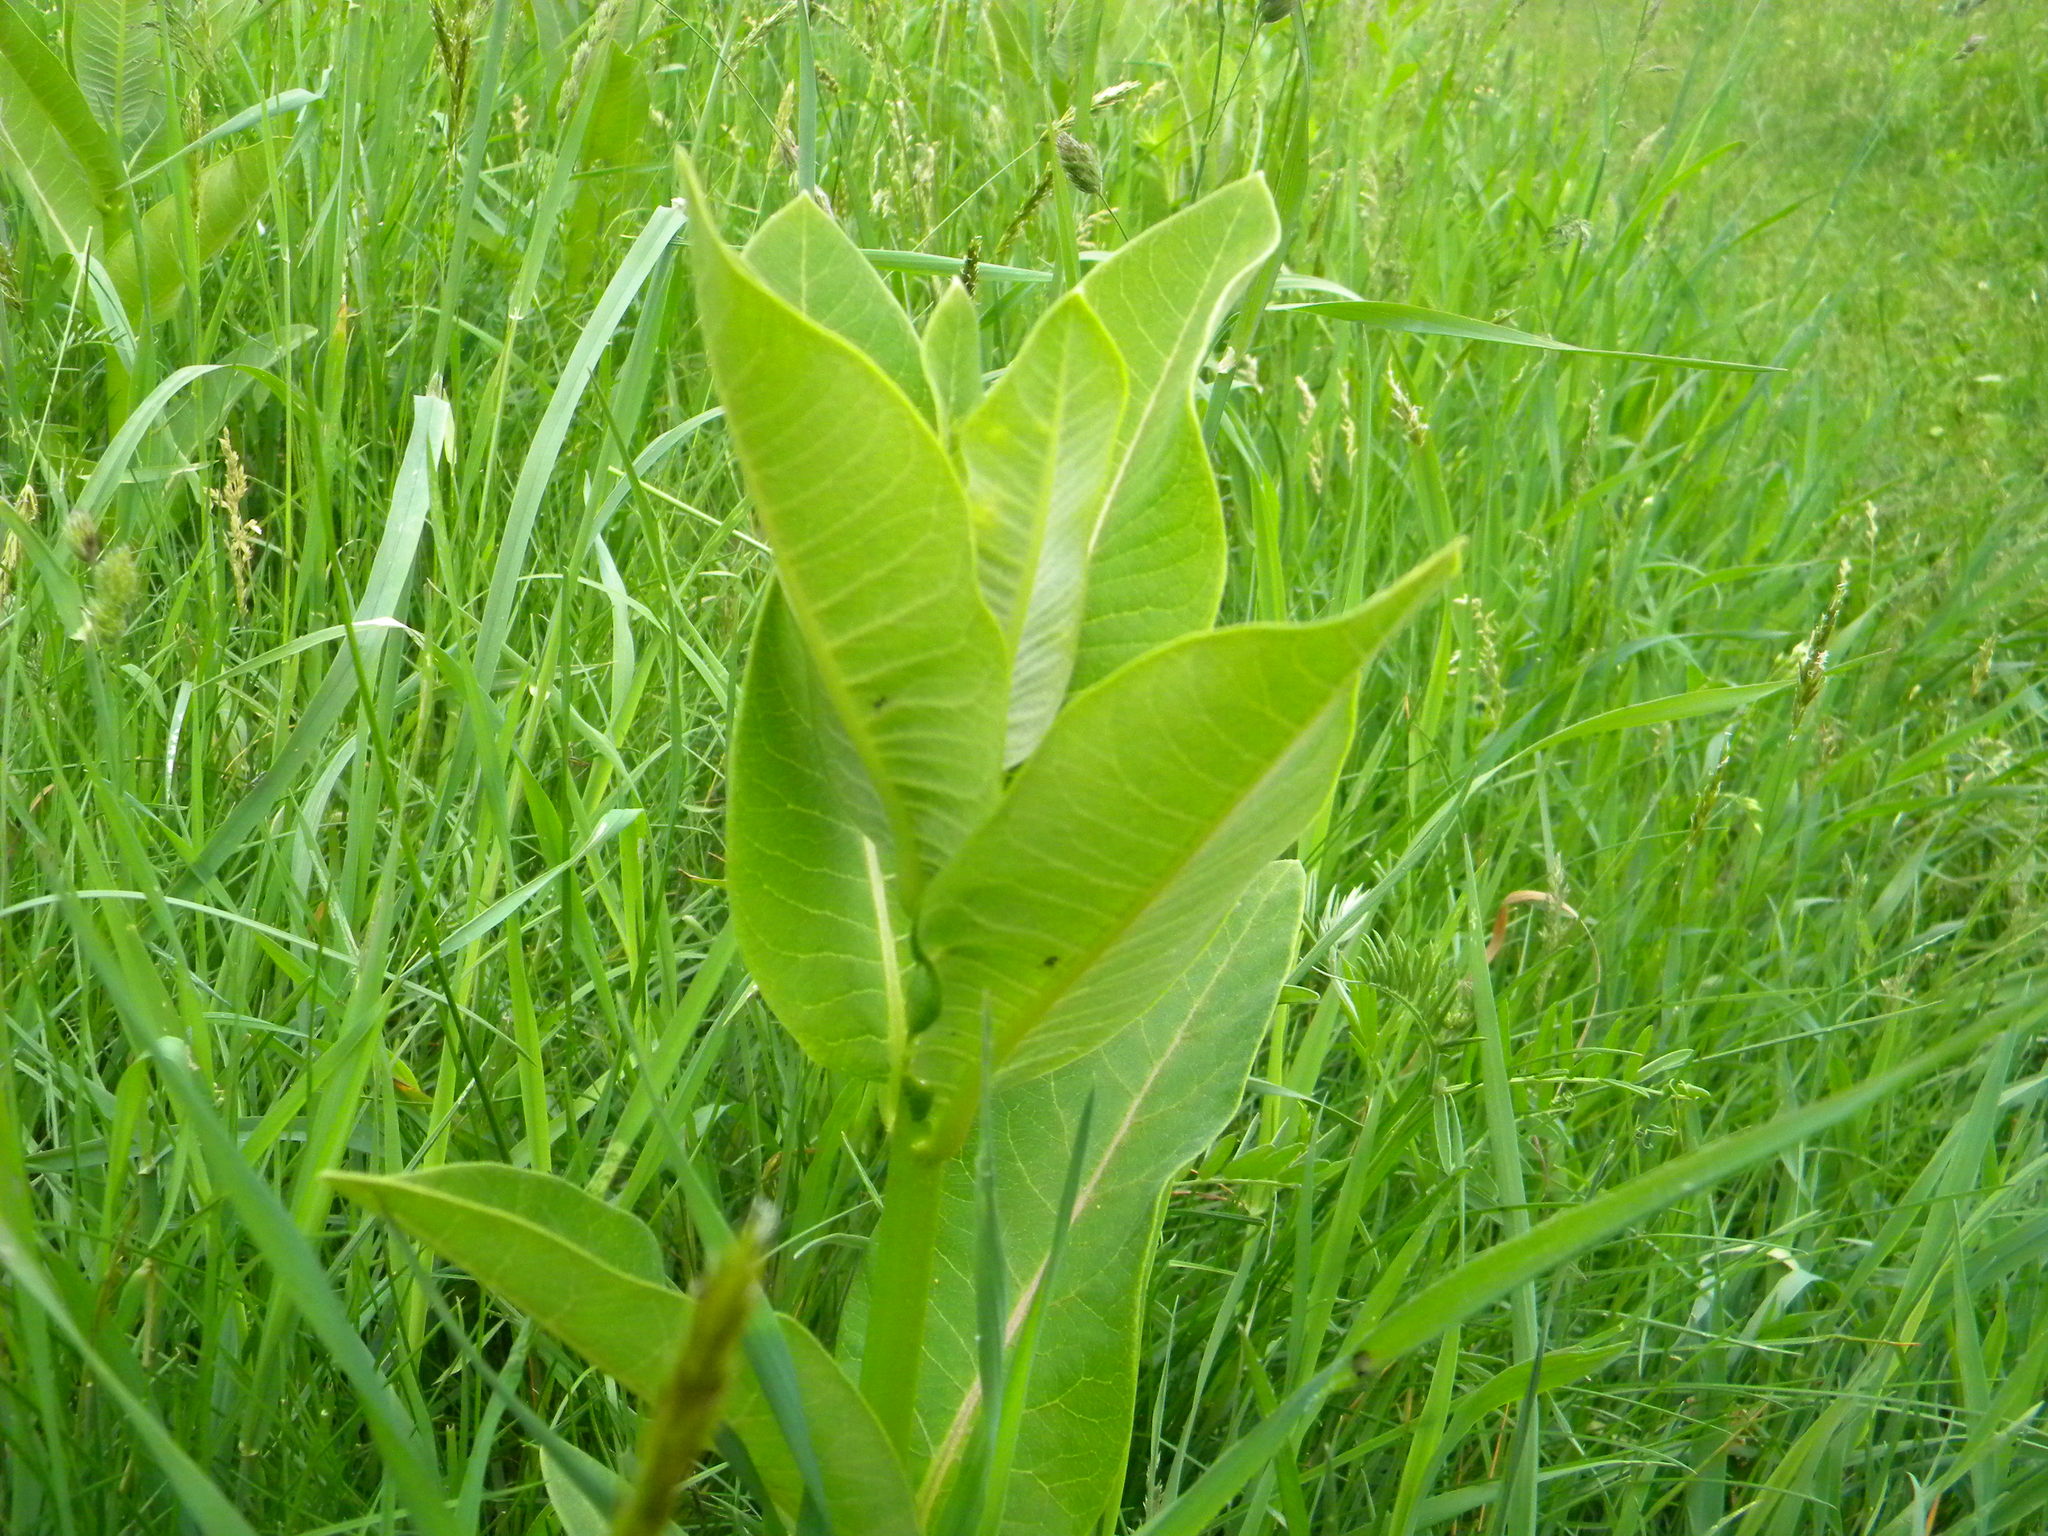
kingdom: Plantae
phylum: Tracheophyta
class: Magnoliopsida
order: Gentianales
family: Apocynaceae
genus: Asclepias
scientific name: Asclepias syriaca
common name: Common milkweed
